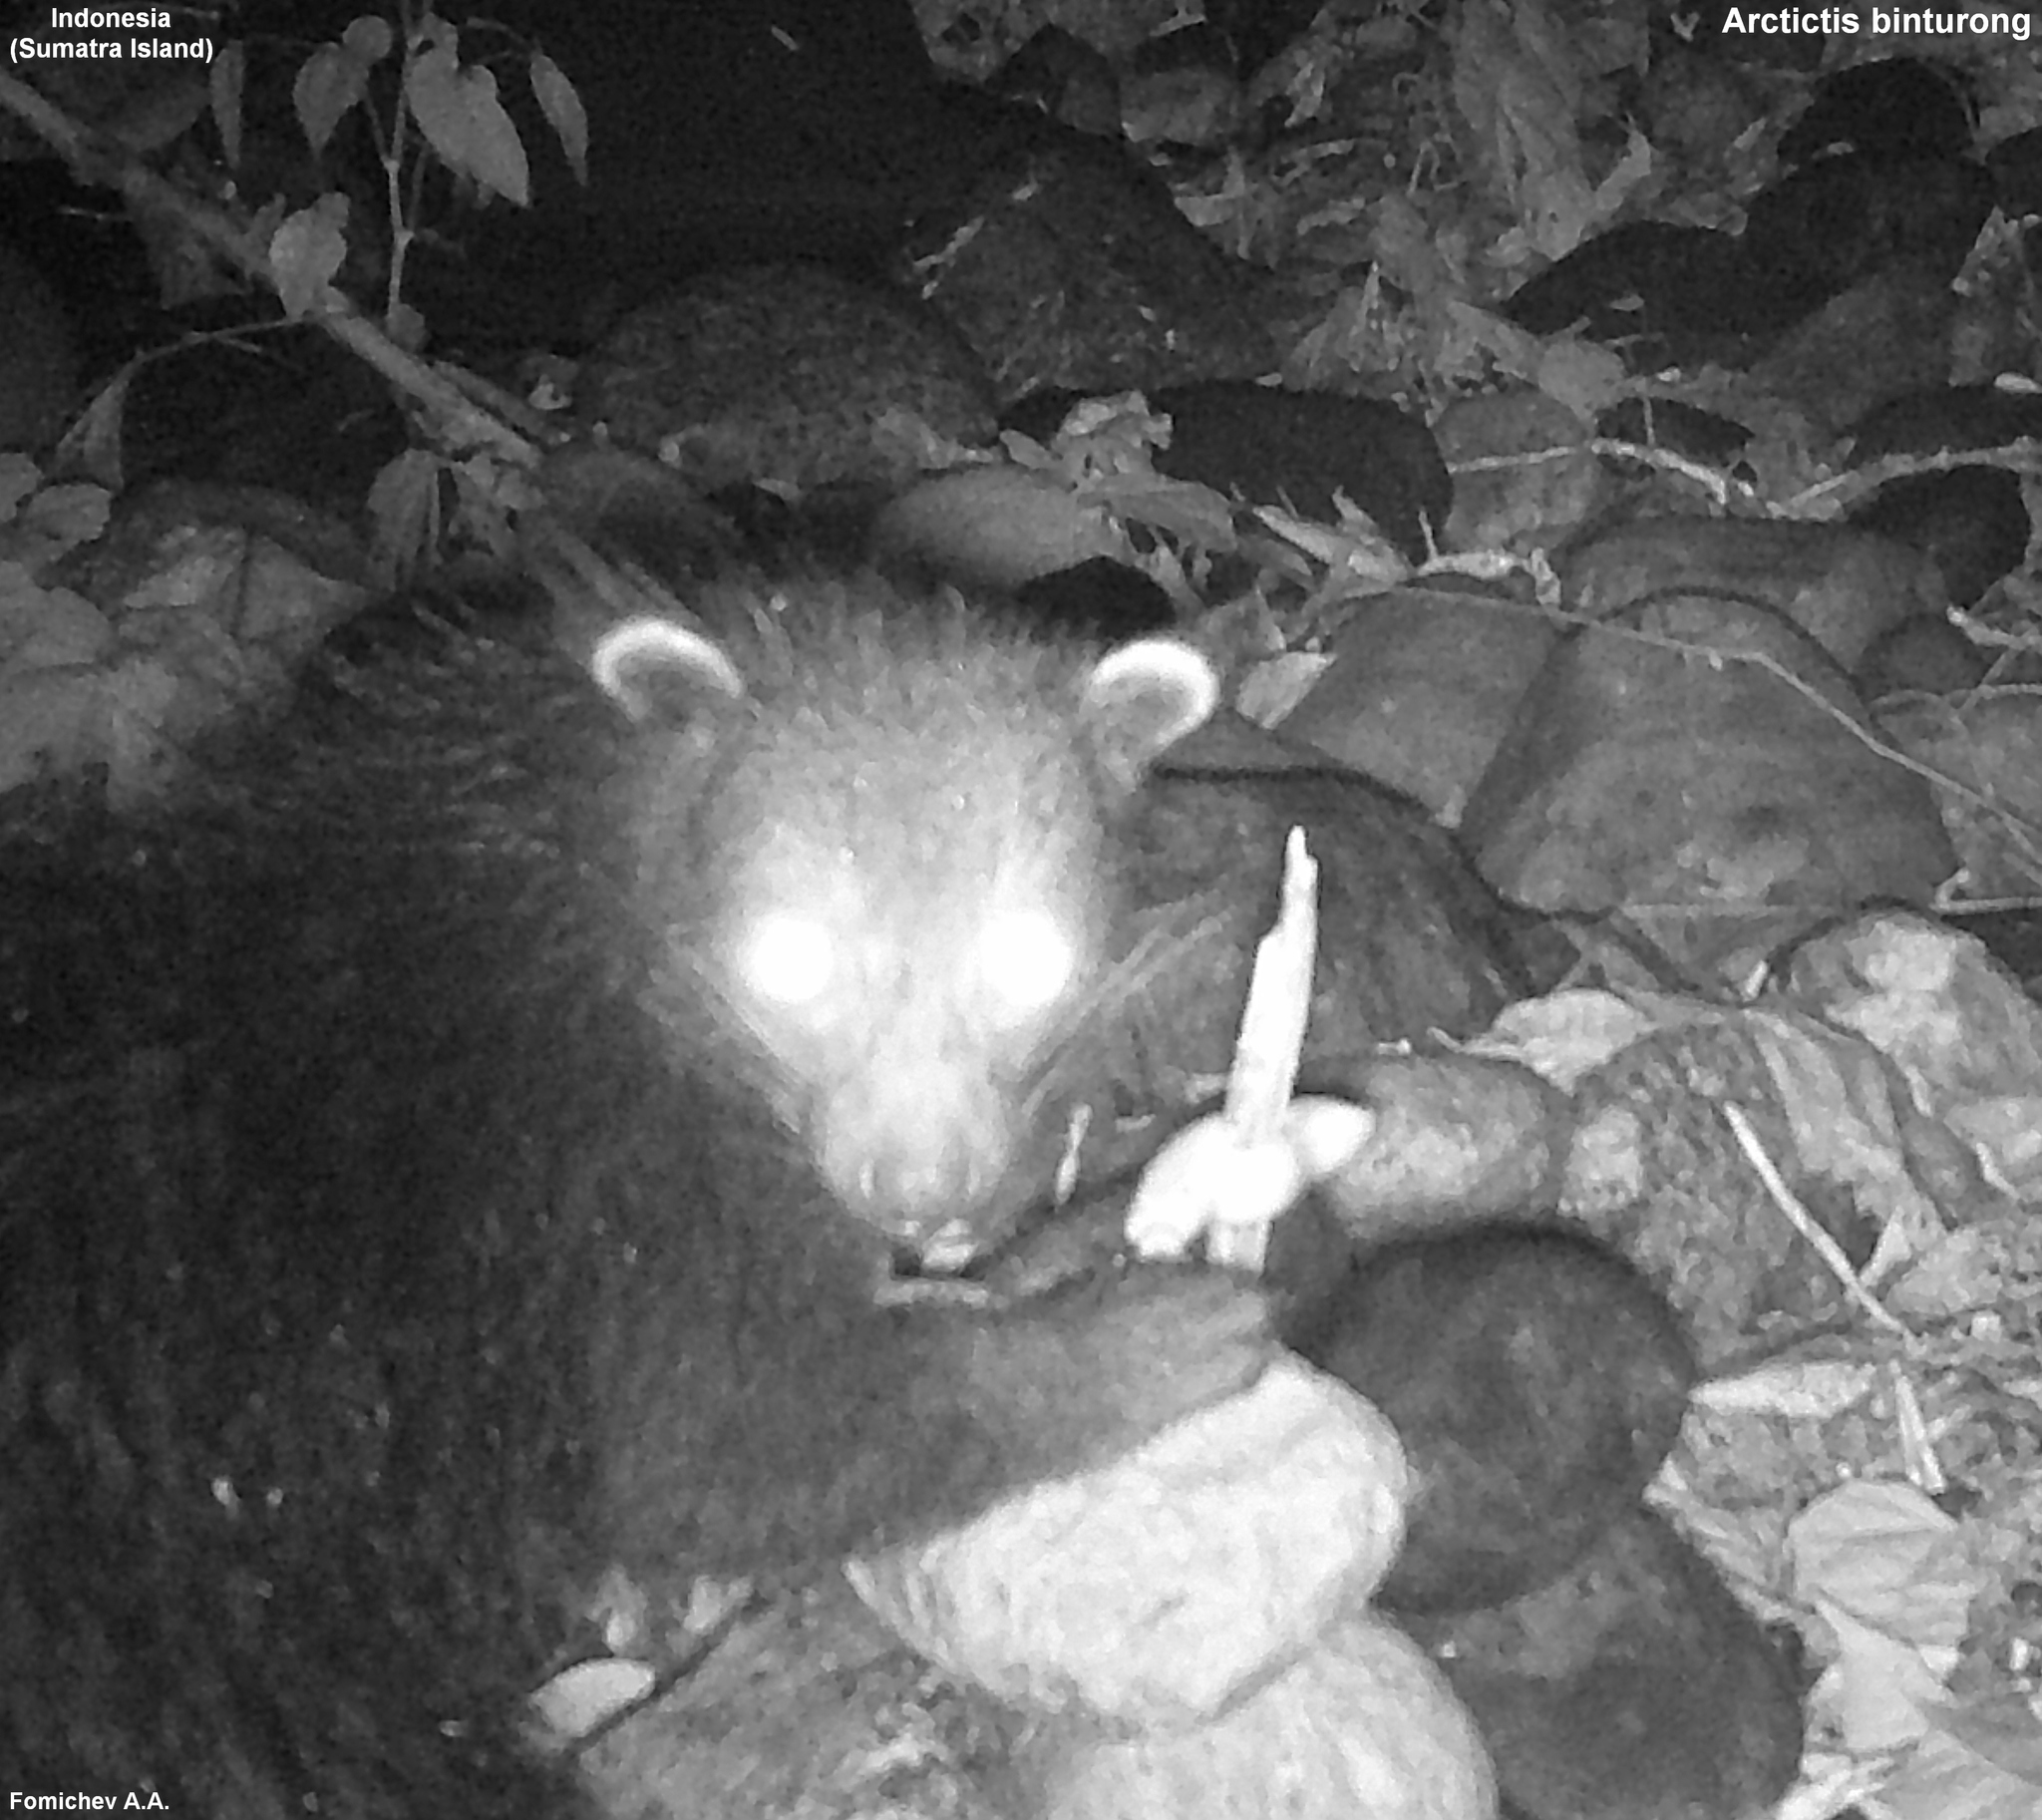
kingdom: Animalia
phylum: Chordata
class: Mammalia
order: Carnivora
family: Viverridae
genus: Arctictis
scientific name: Arctictis binturong
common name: Binturong
